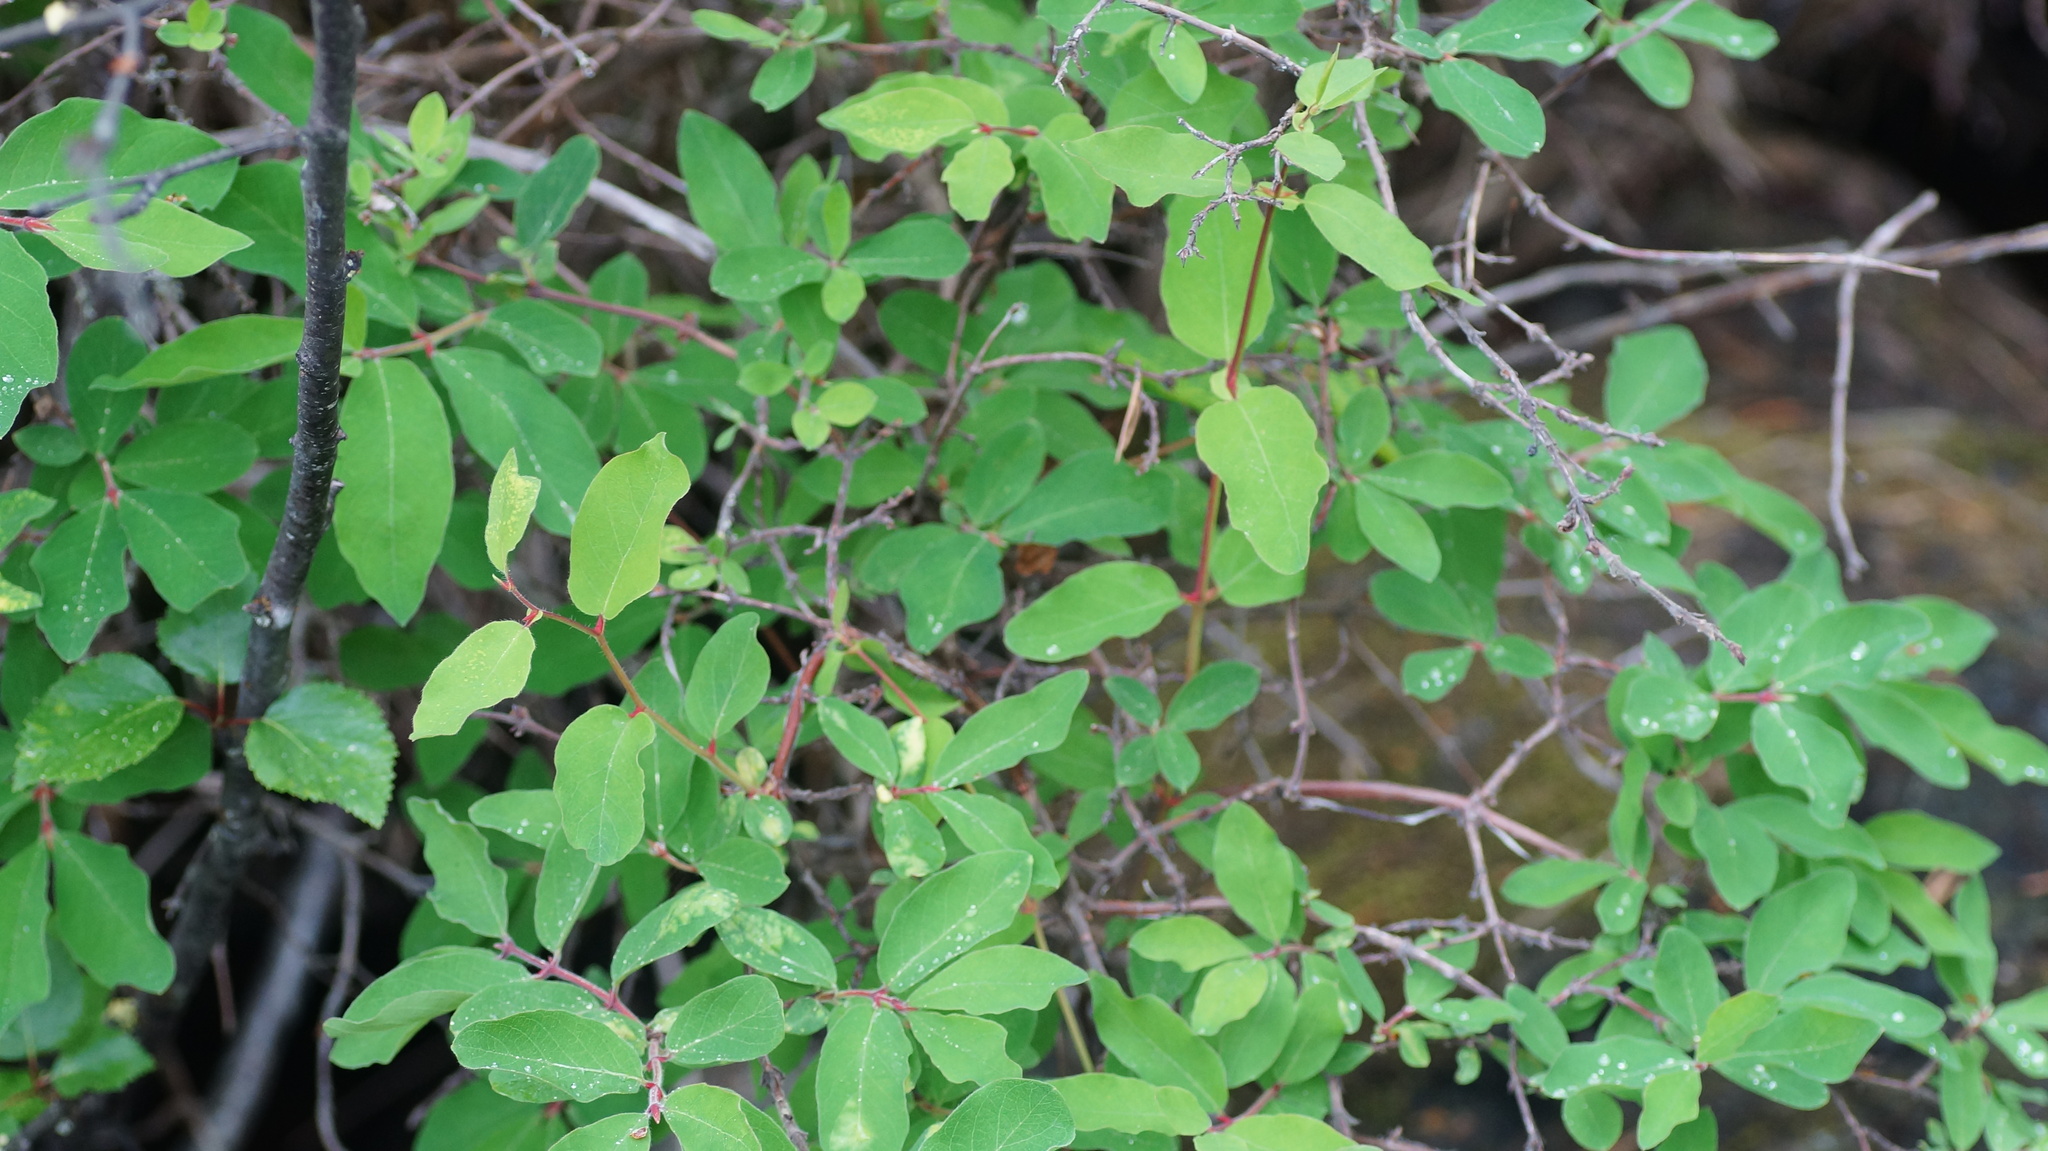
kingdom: Plantae
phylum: Tracheophyta
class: Magnoliopsida
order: Dipsacales
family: Caprifoliaceae
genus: Lonicera
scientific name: Lonicera caerulea
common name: Blue honeysuckle
